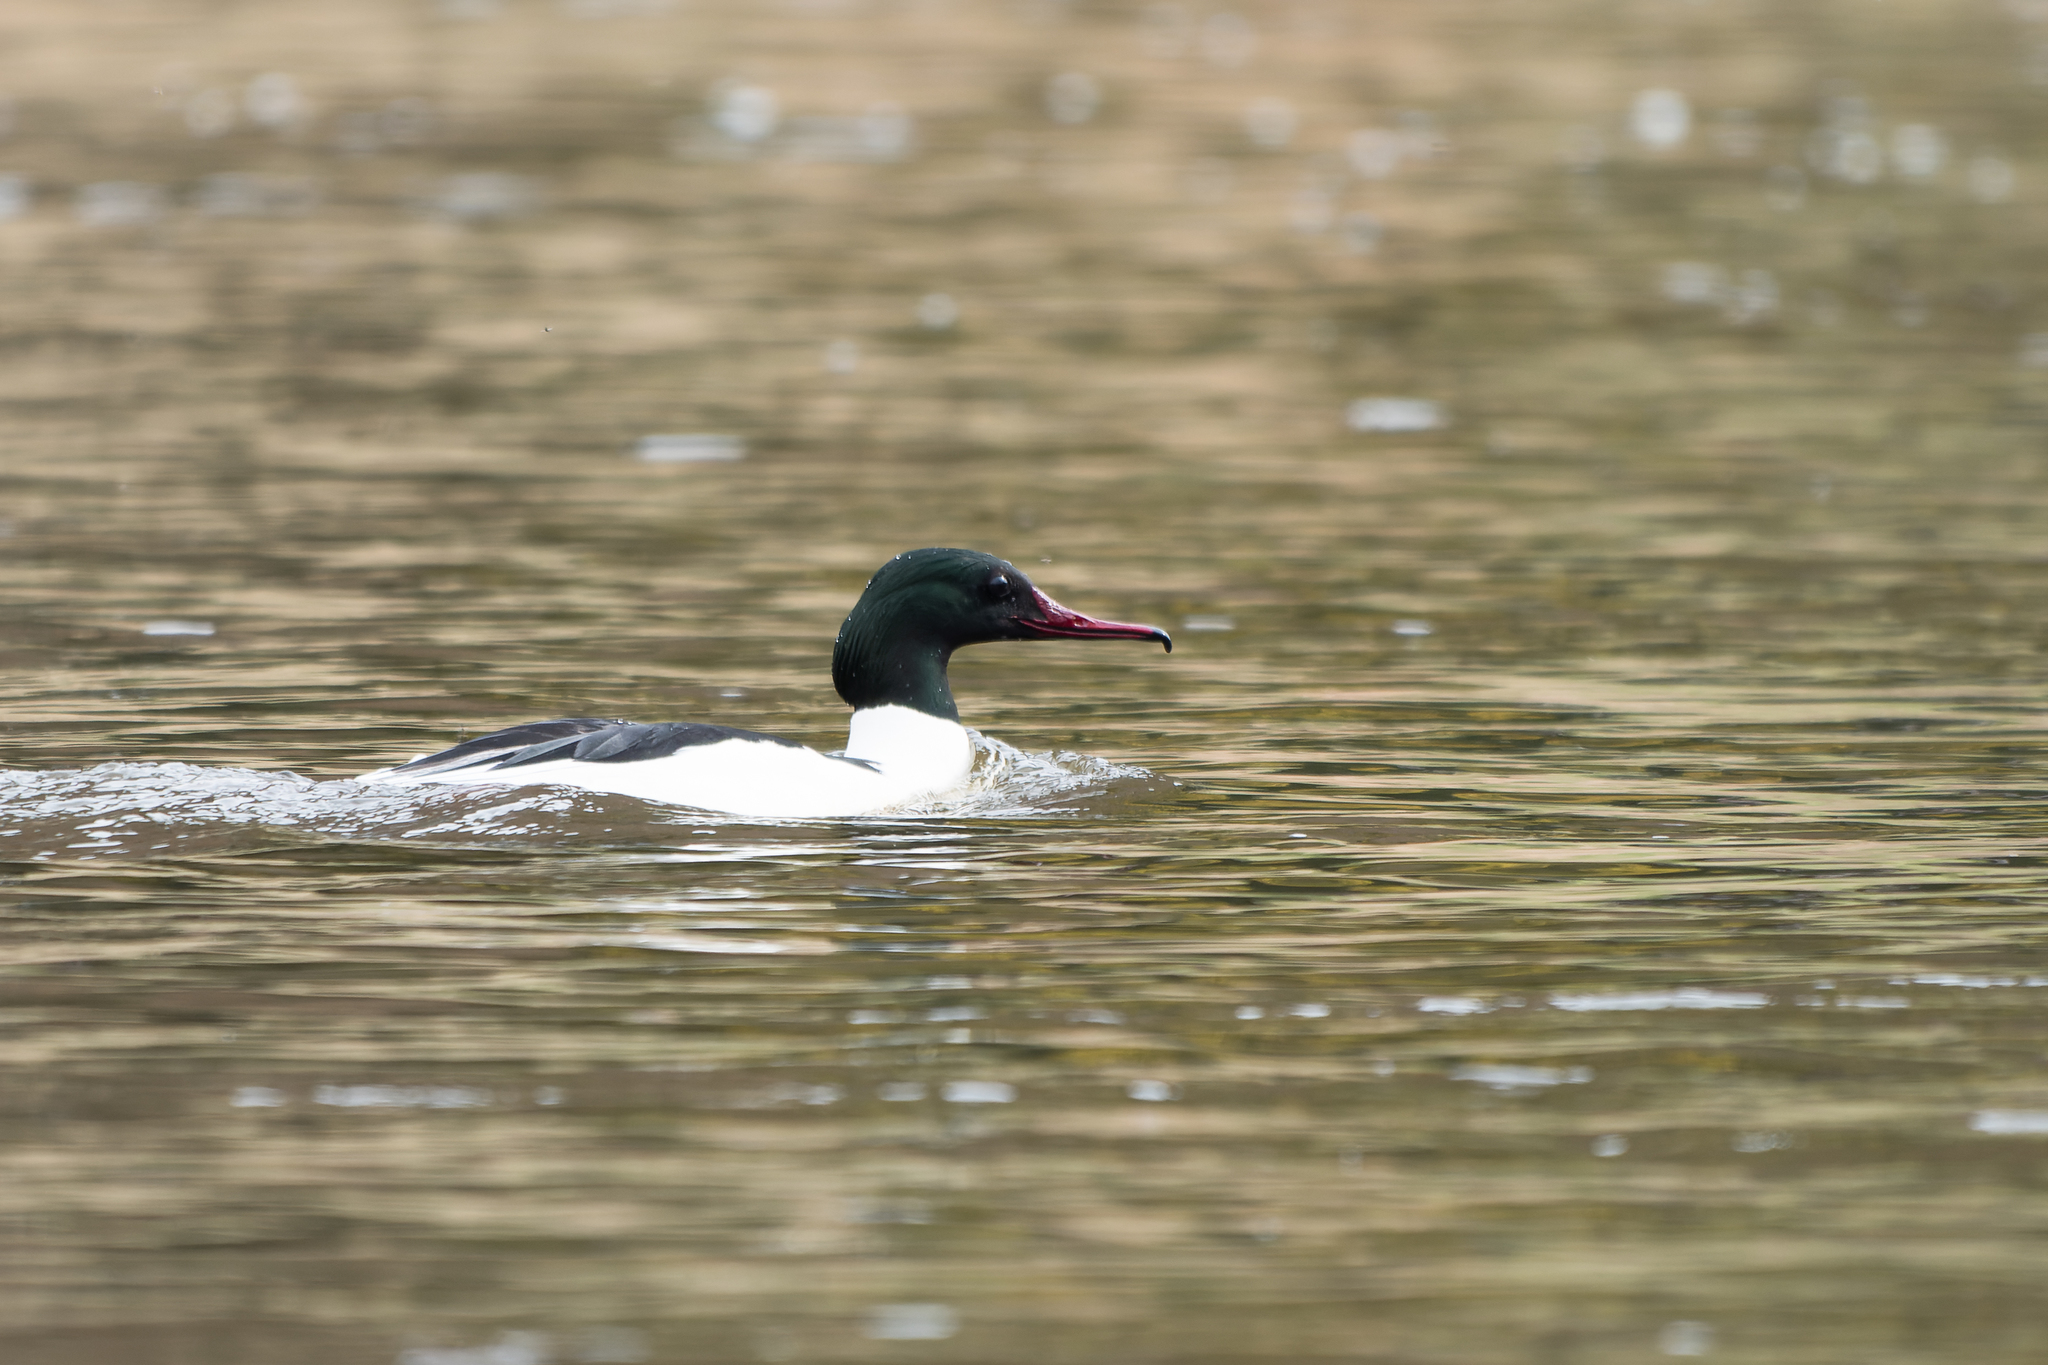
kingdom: Animalia
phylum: Chordata
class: Aves
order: Anseriformes
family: Anatidae
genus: Mergus
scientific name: Mergus merganser
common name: Common merganser
